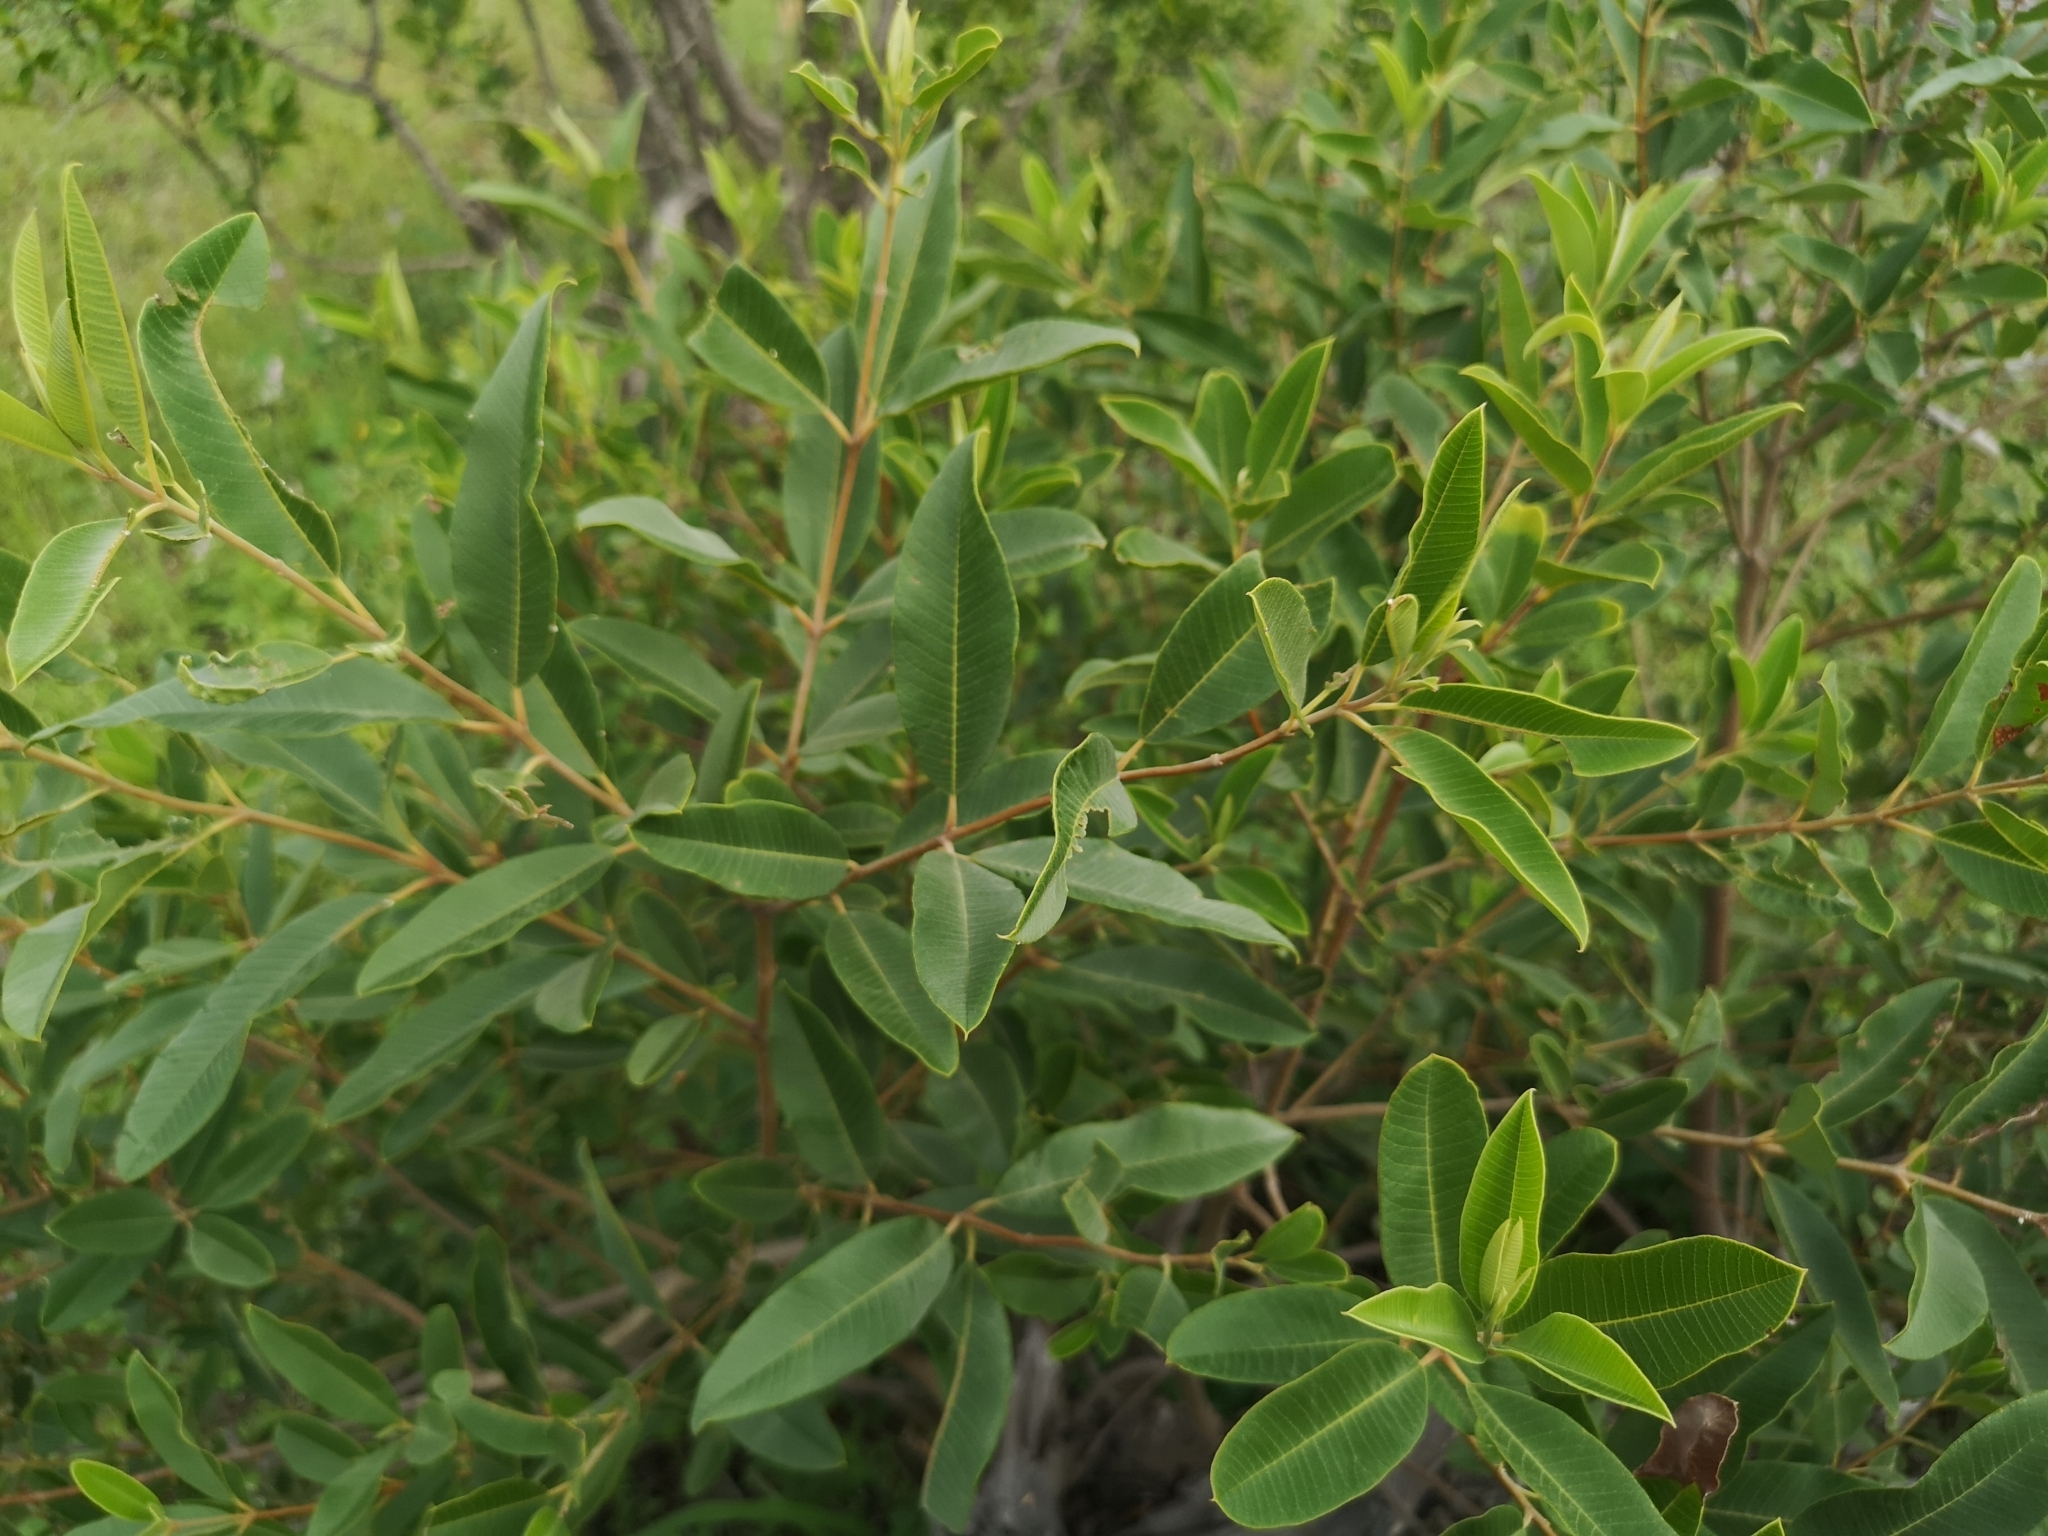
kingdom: Plantae
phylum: Tracheophyta
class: Magnoliopsida
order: Sapindales
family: Anacardiaceae
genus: Ozoroa
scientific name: Ozoroa paniculosa
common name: Bushveld ozoroa
